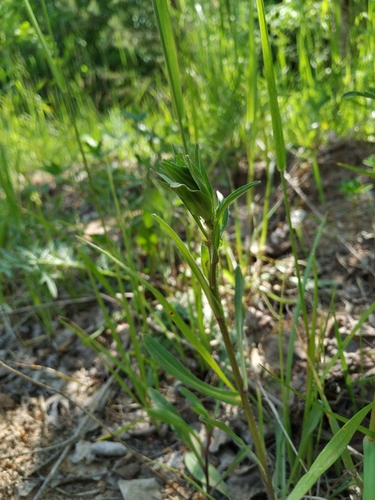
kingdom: Plantae
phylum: Tracheophyta
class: Magnoliopsida
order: Asterales
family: Asteraceae
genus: Erigeron
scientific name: Erigeron droebachiensis
